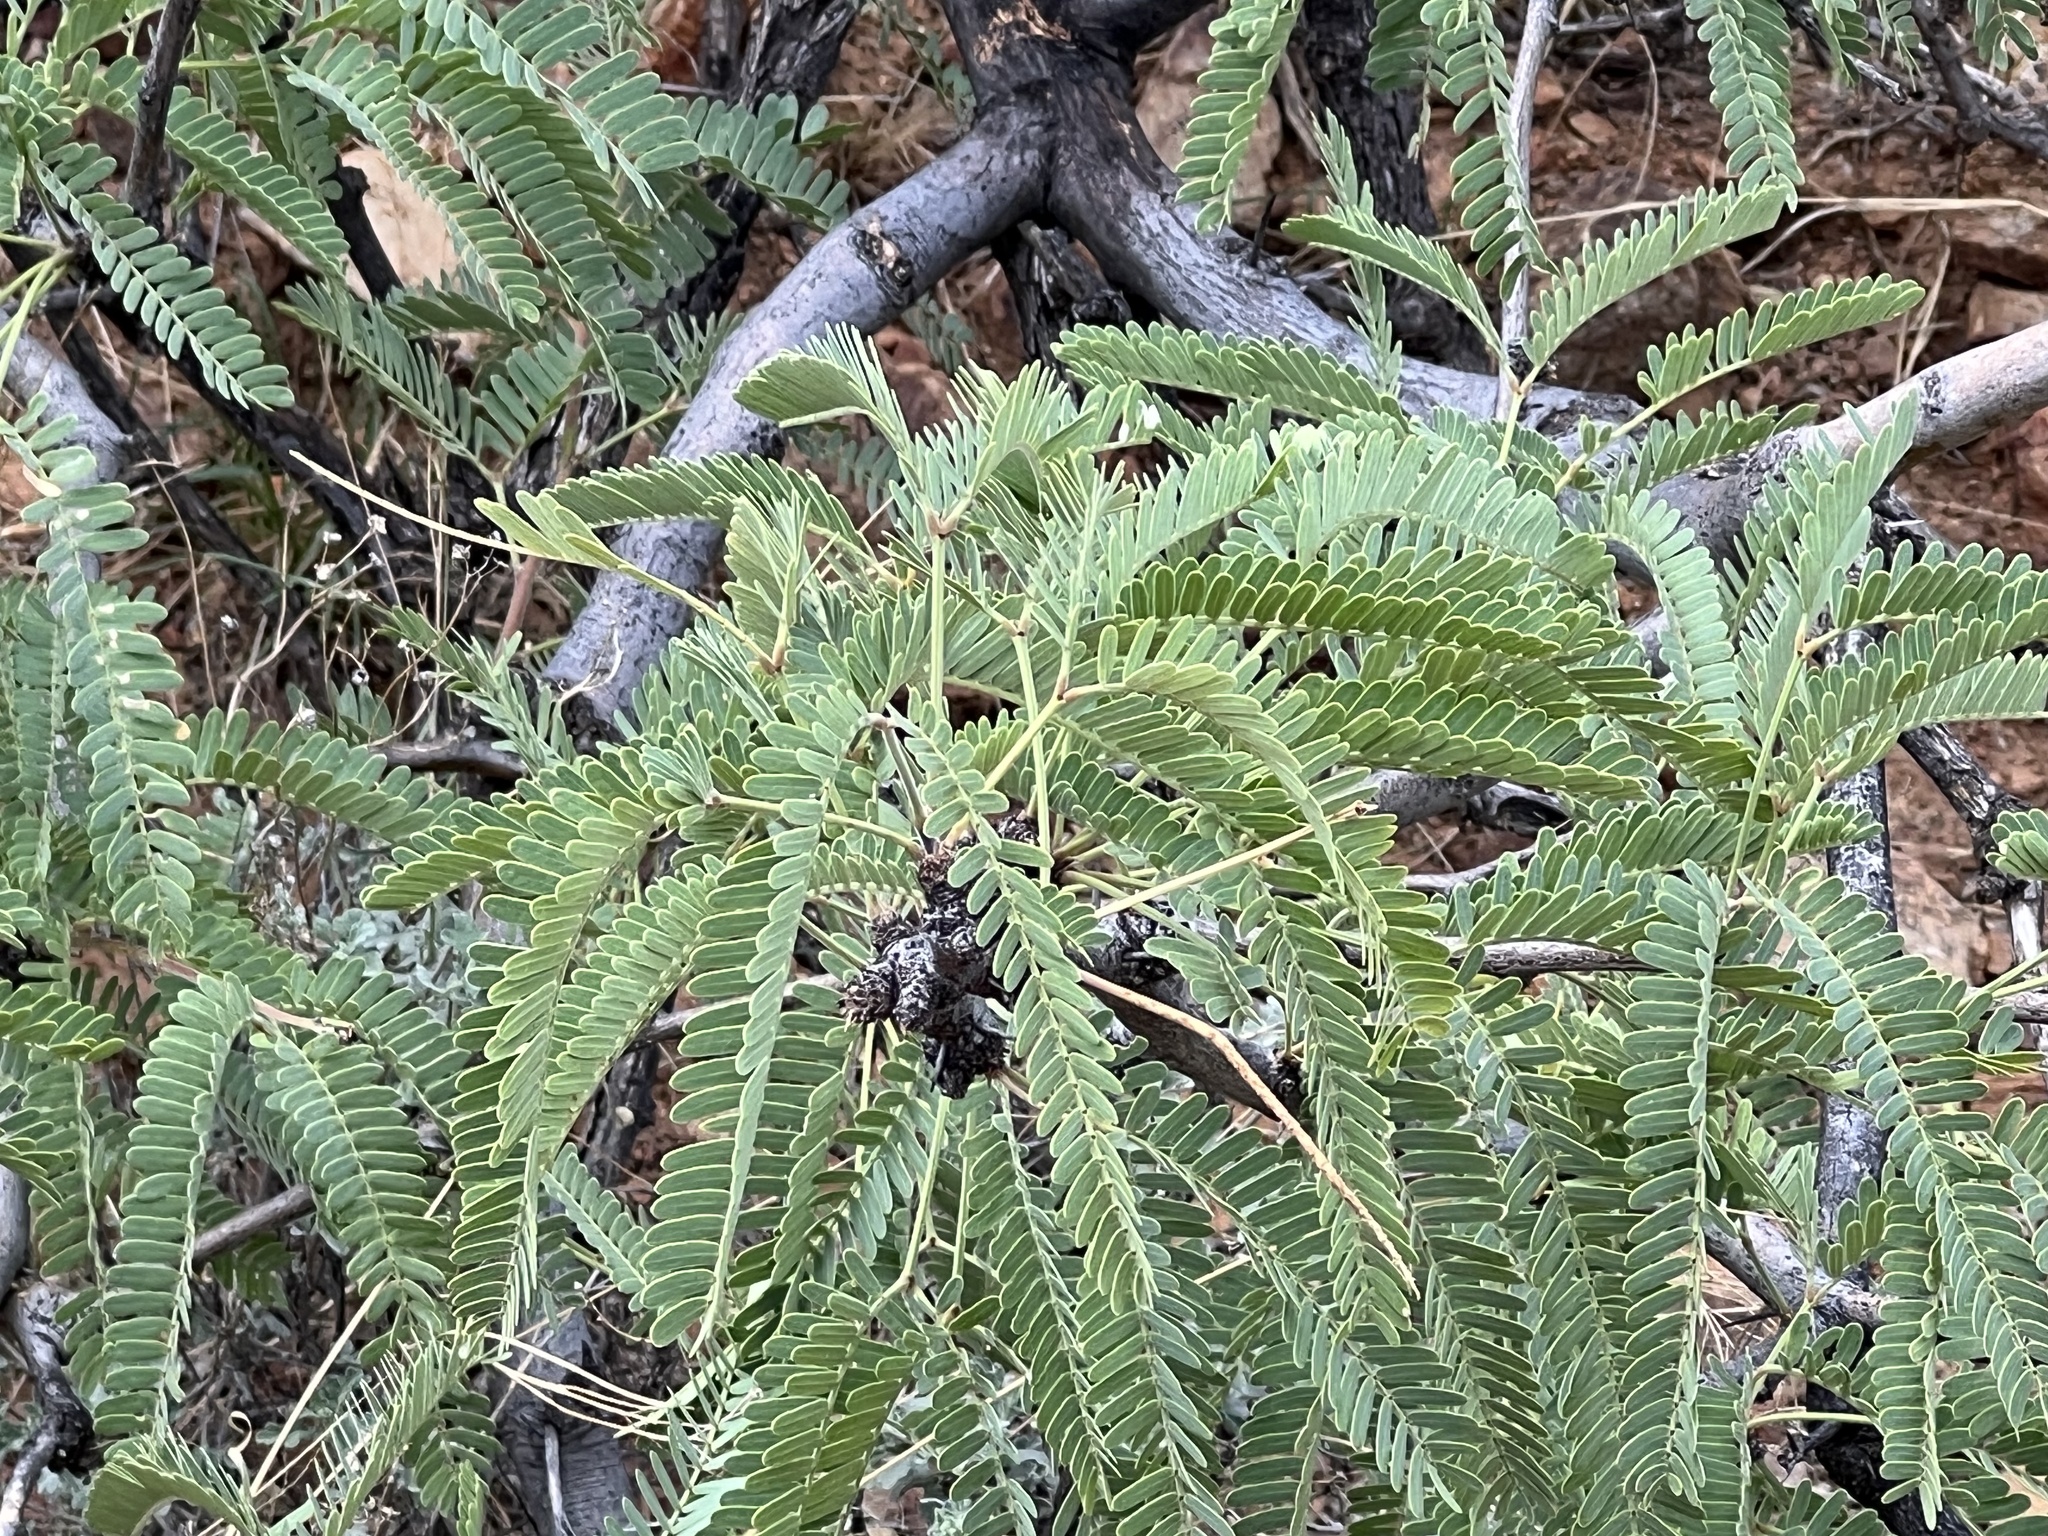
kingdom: Plantae
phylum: Tracheophyta
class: Magnoliopsida
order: Fabales
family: Fabaceae
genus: Prosopis
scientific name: Prosopis velutina
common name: Velvet mesquite
